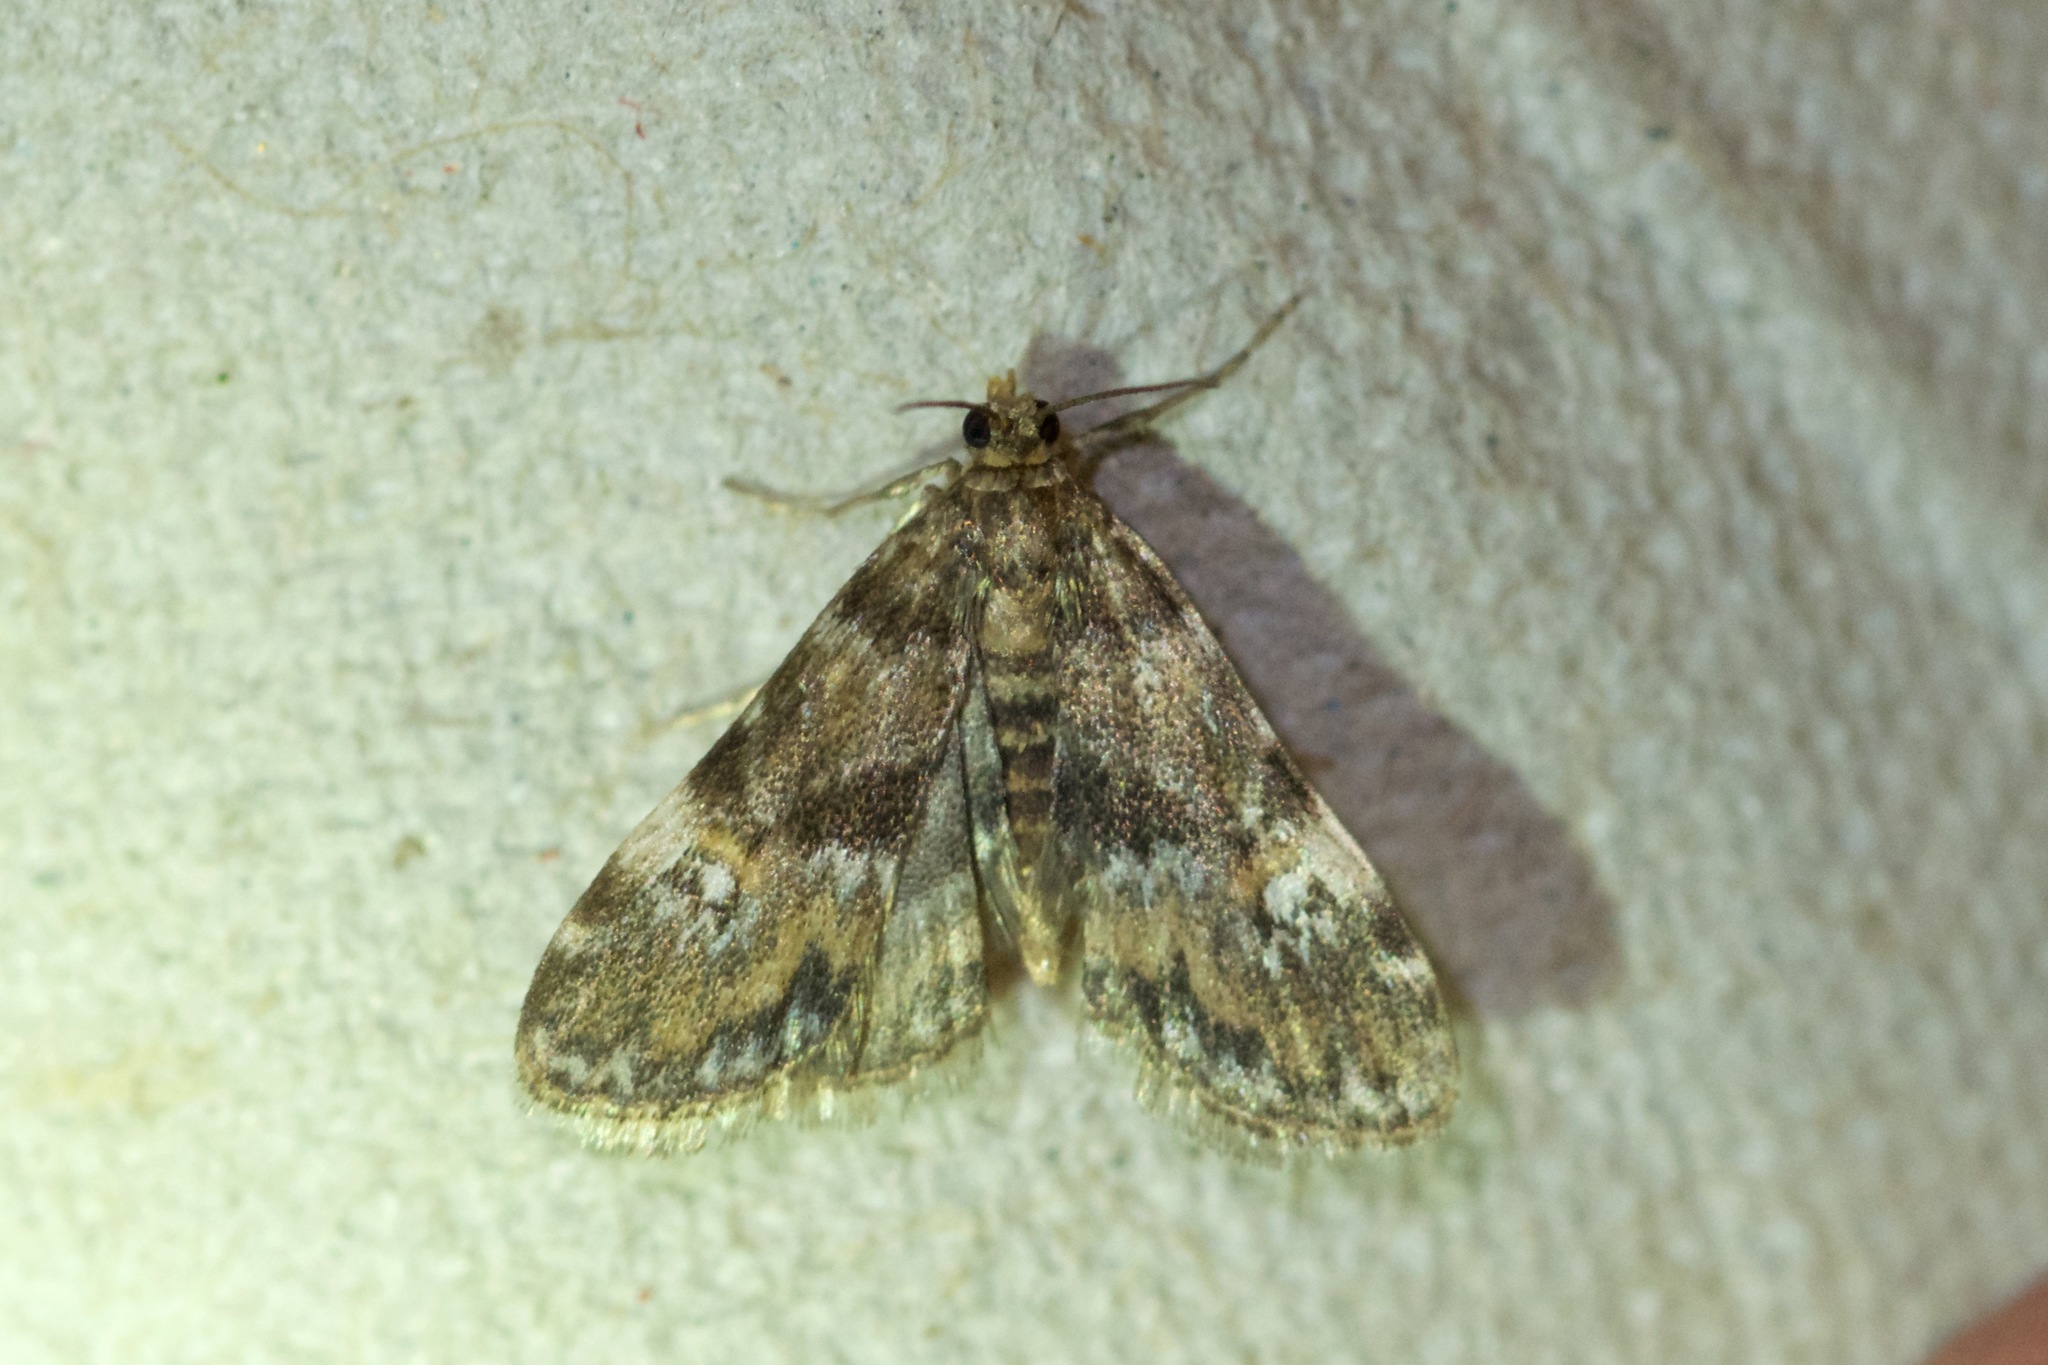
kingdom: Animalia
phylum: Arthropoda
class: Insecta
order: Lepidoptera
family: Crambidae
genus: Elophila
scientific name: Elophila obliteralis
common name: Waterlily leafcutter moth
